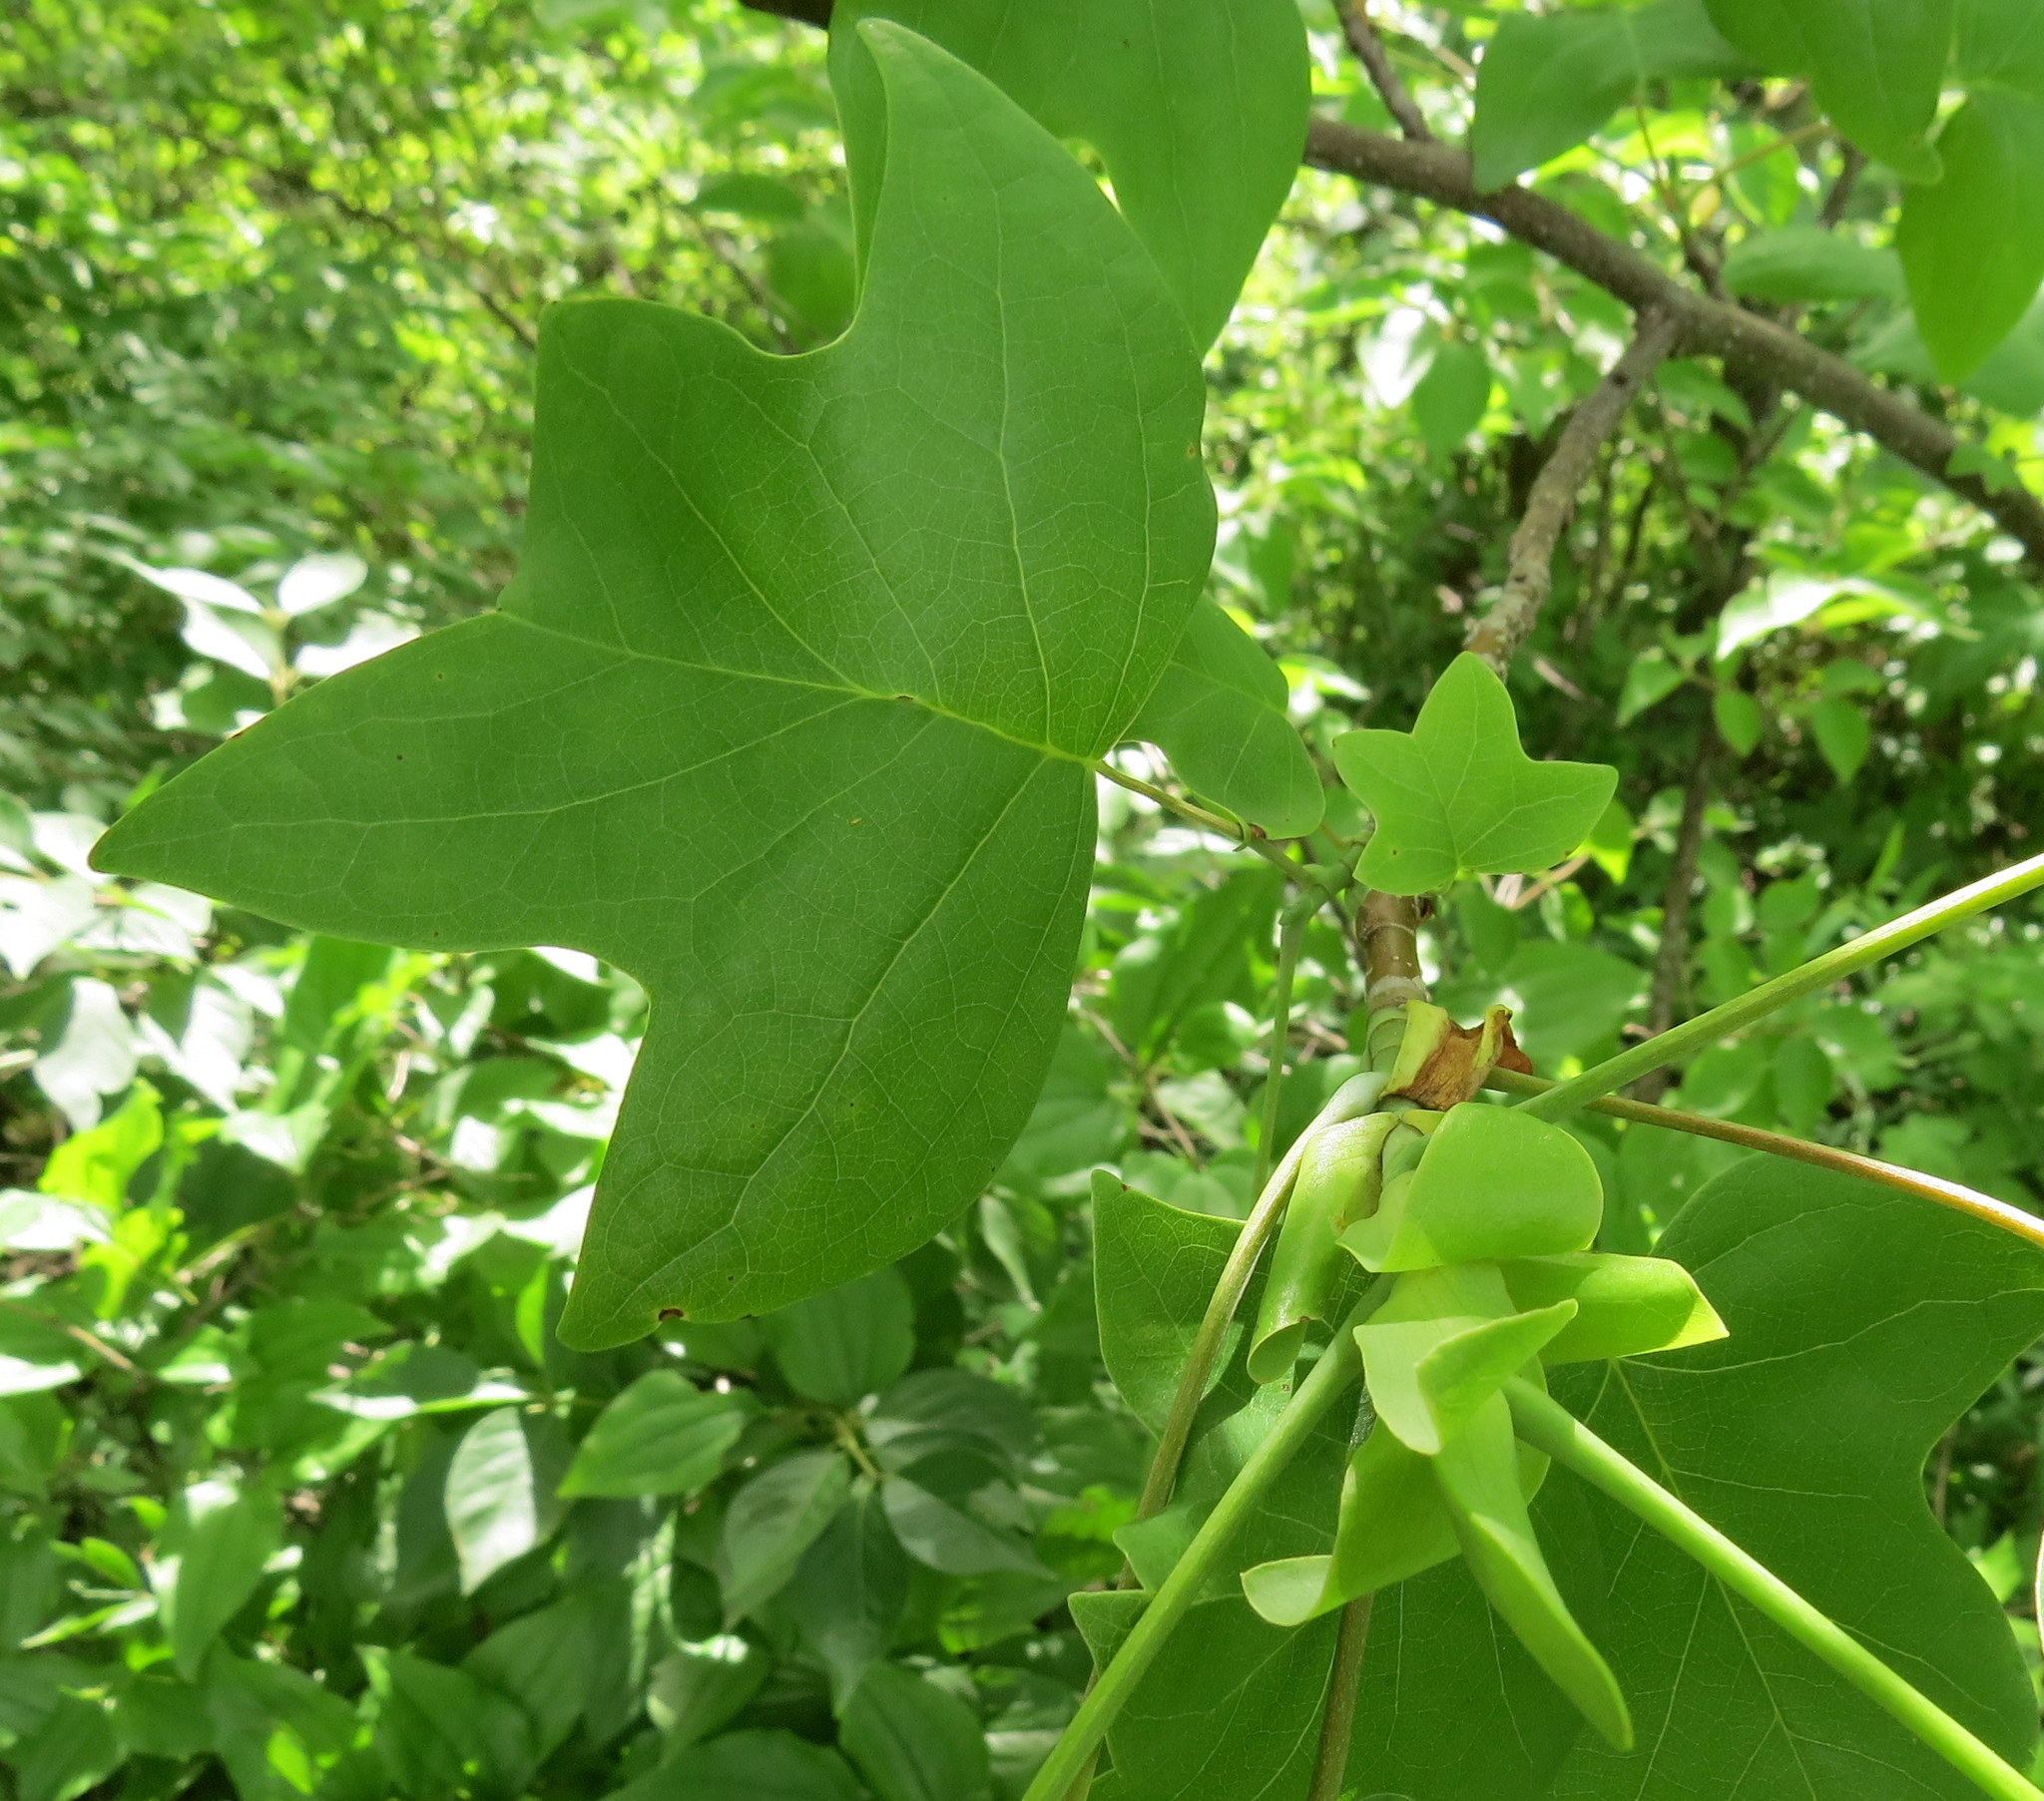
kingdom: Plantae
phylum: Tracheophyta
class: Magnoliopsida
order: Magnoliales
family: Magnoliaceae
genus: Liriodendron
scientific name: Liriodendron tulipifera
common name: Tulip tree
